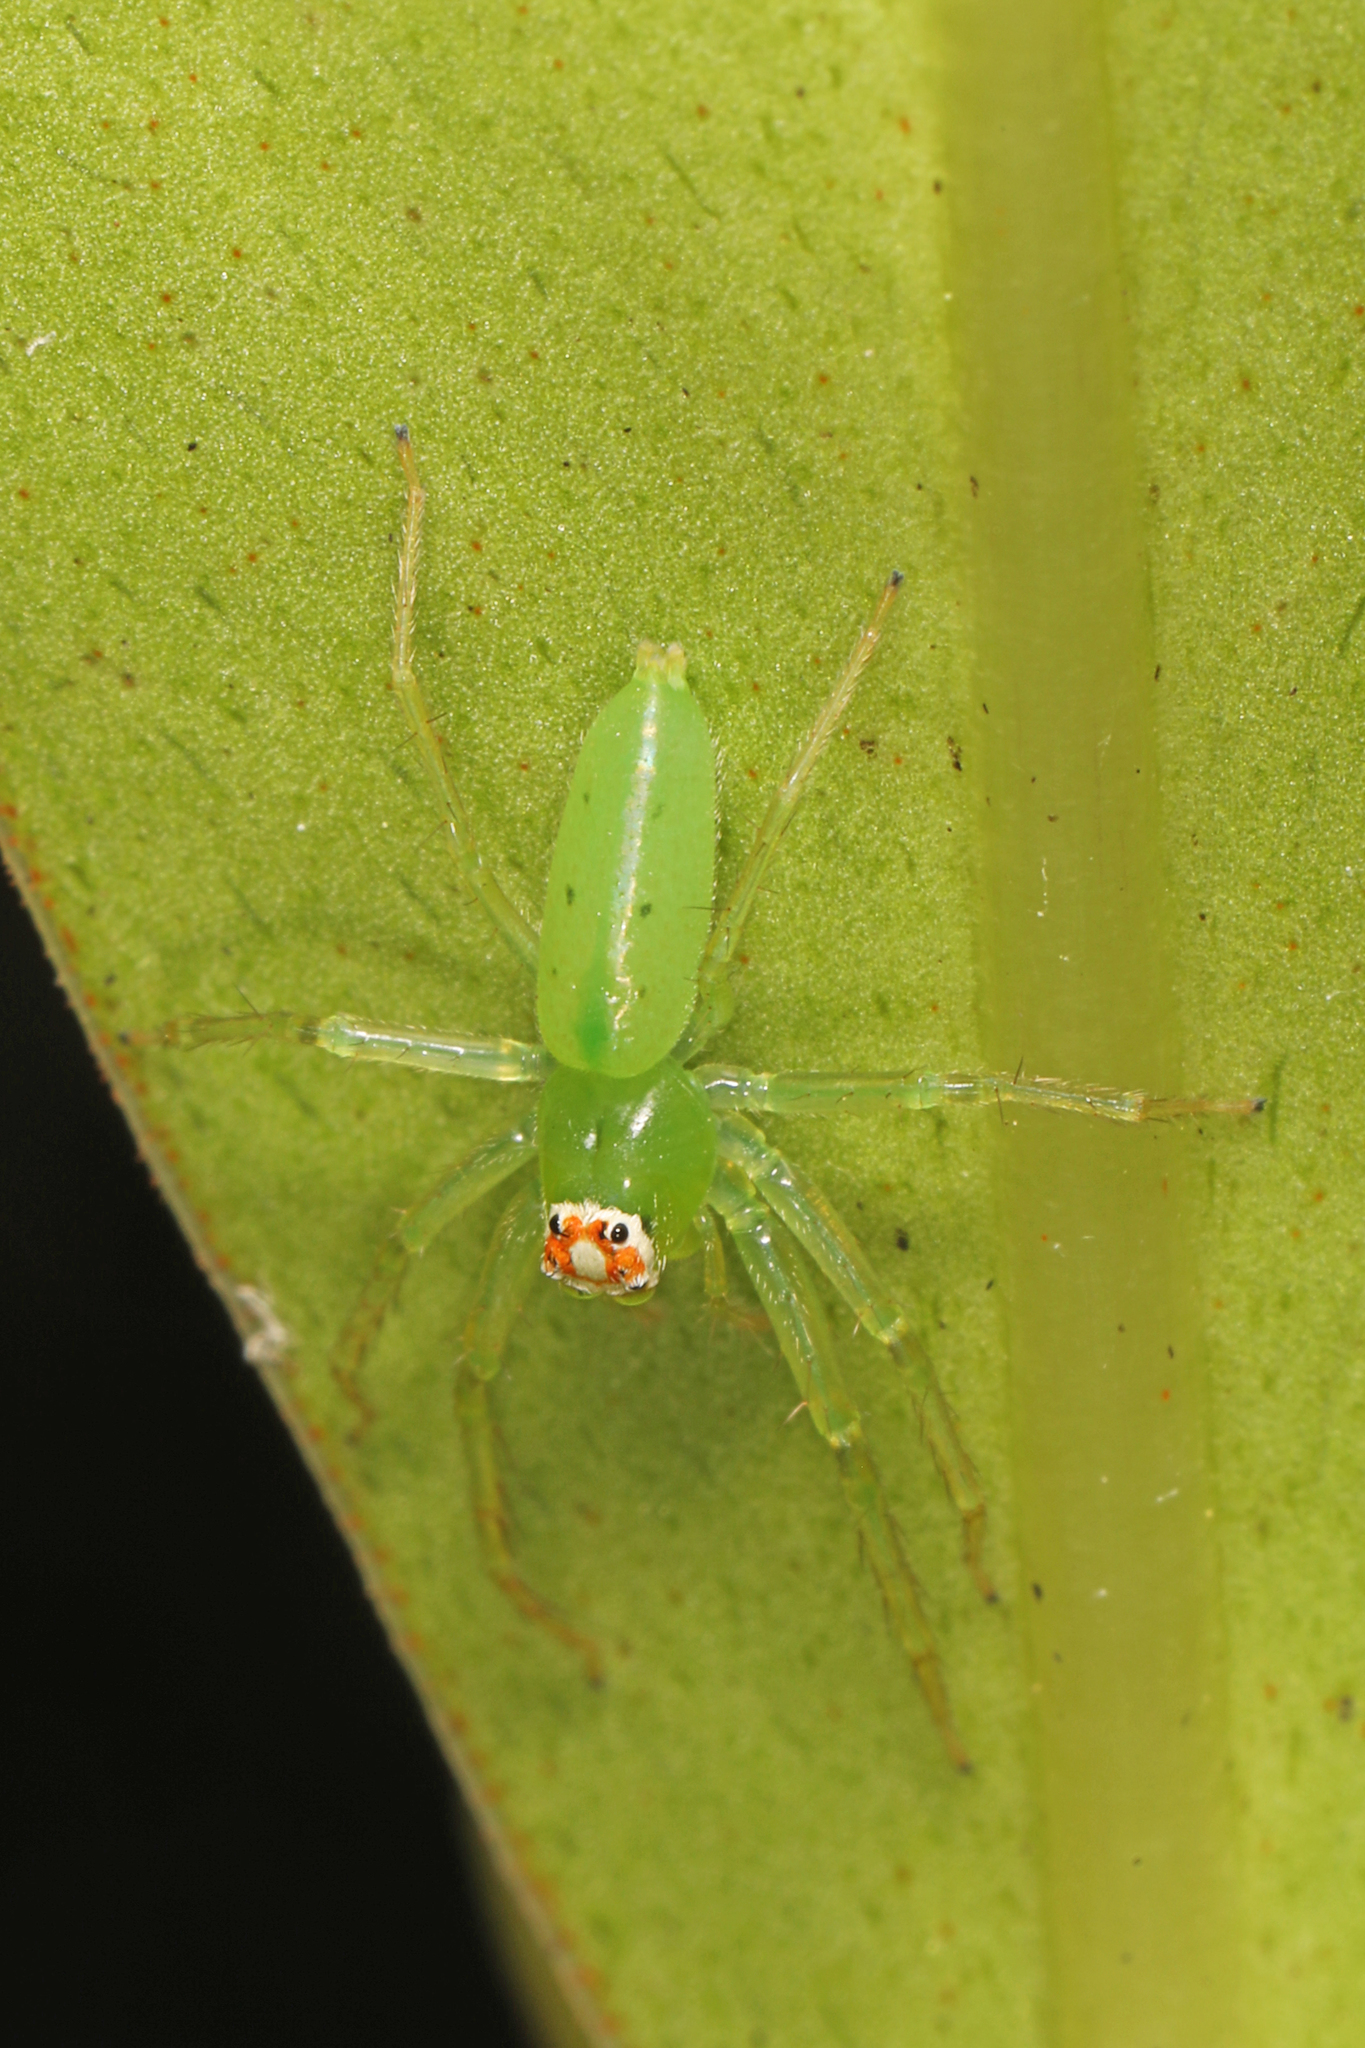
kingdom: Animalia
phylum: Arthropoda
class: Arachnida
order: Araneae
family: Salticidae
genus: Lyssomanes
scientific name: Lyssomanes viridis
